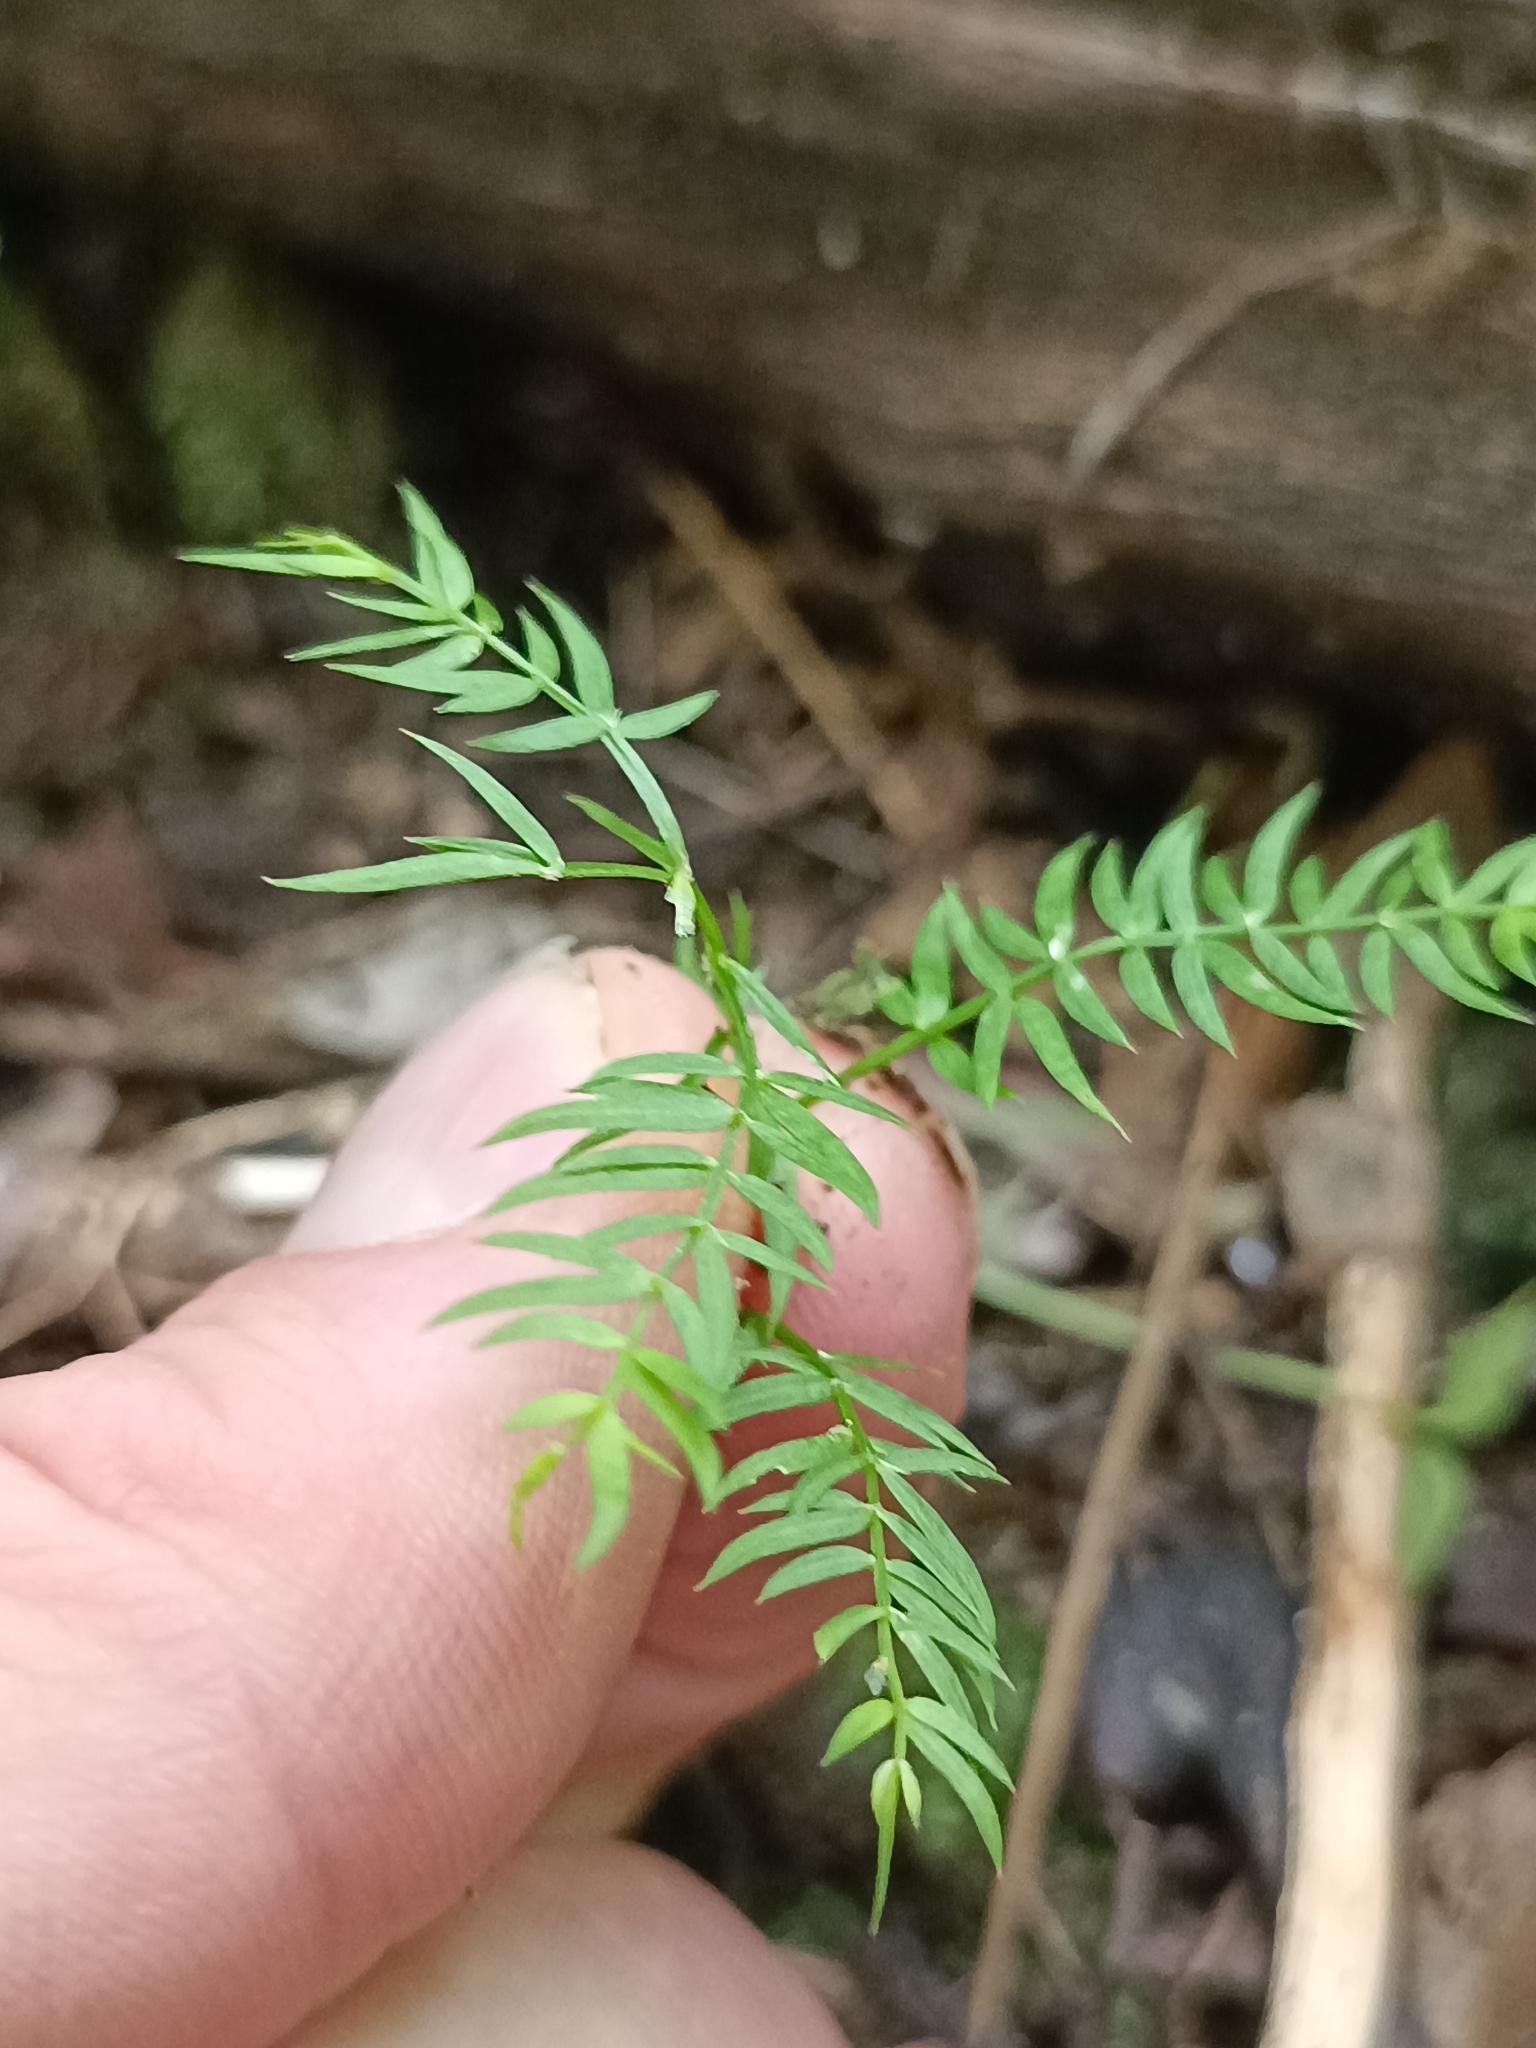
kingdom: Plantae
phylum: Tracheophyta
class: Liliopsida
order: Asparagales
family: Asparagaceae
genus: Asparagus
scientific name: Asparagus scandens
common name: Asparagus-fern
